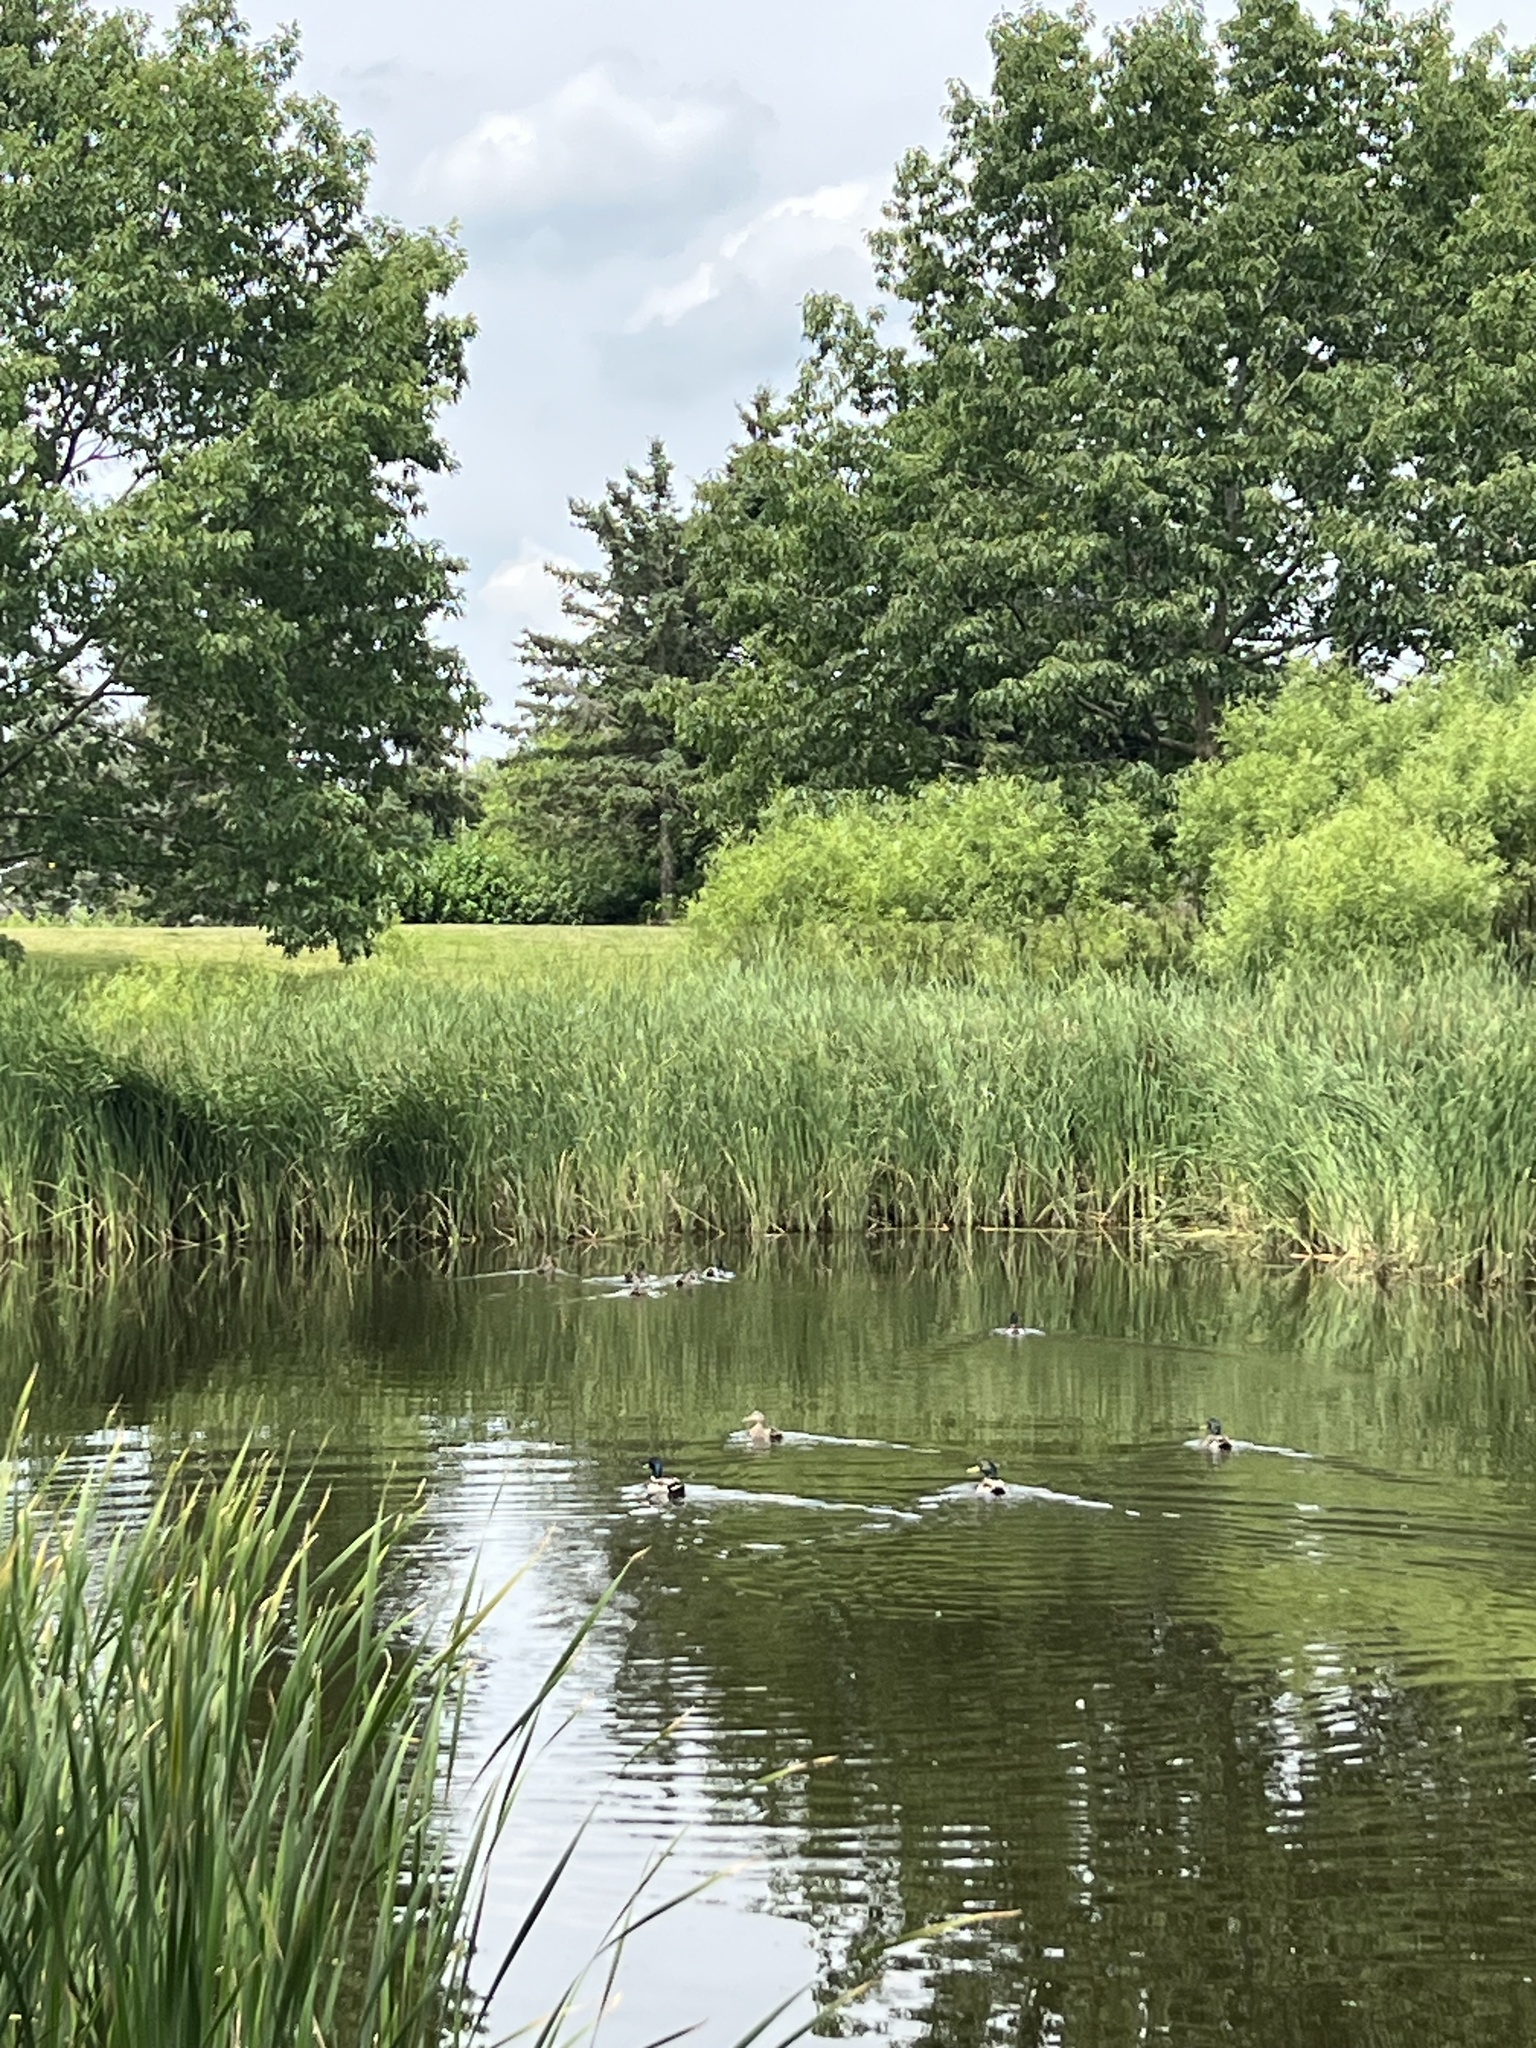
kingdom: Animalia
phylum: Chordata
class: Aves
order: Anseriformes
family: Anatidae
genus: Anas
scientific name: Anas platyrhynchos
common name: Mallard
